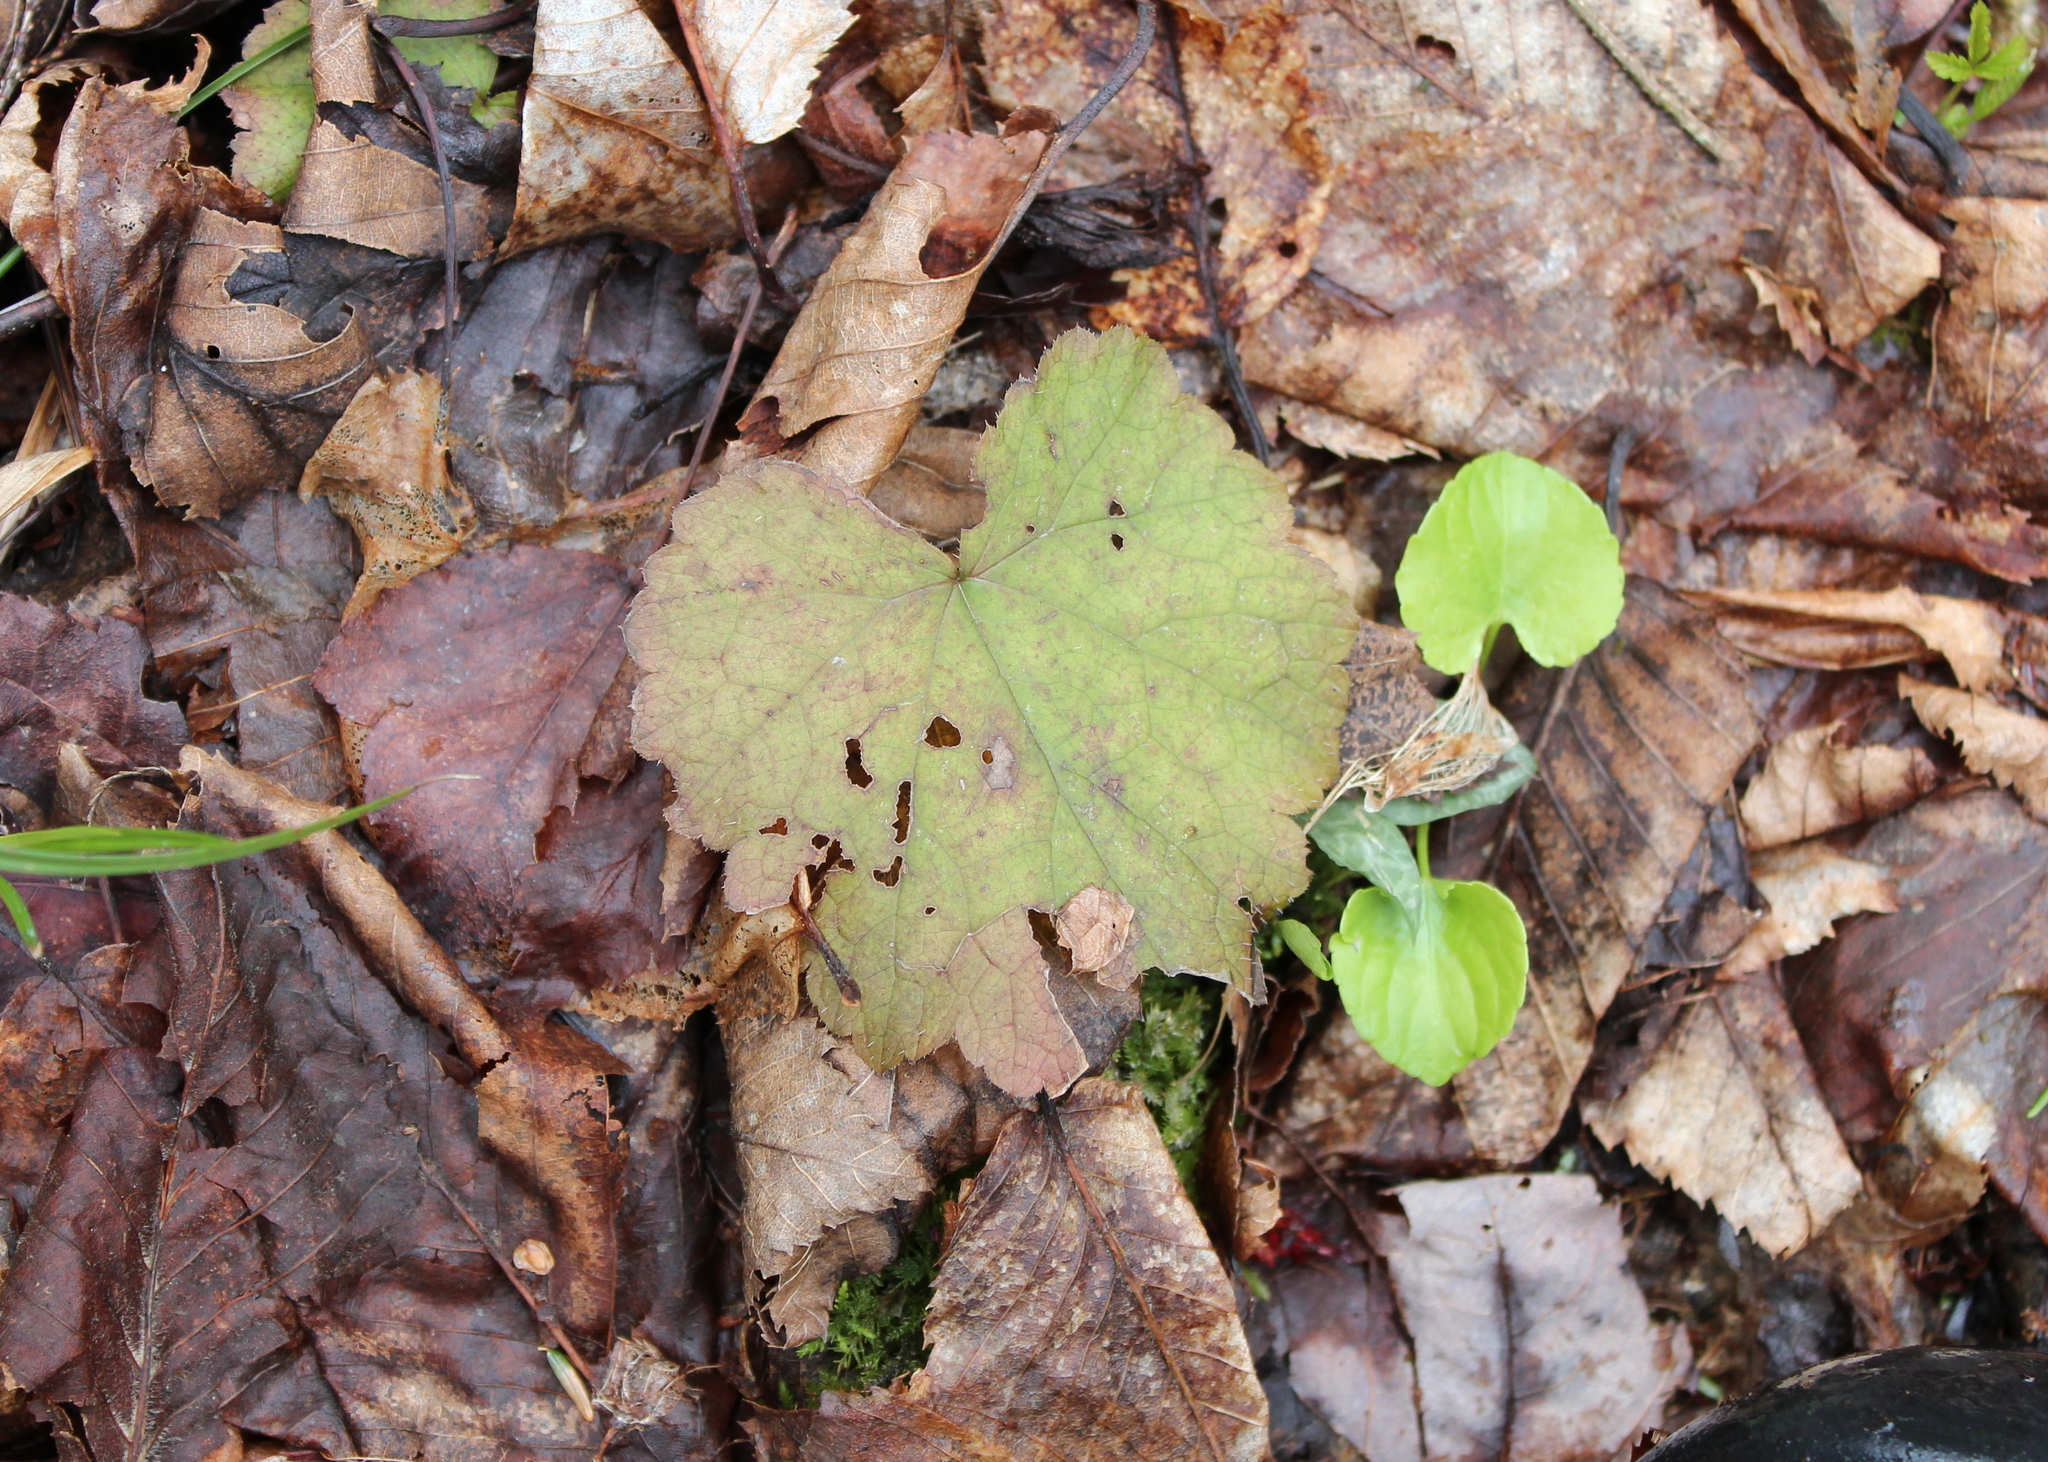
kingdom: Plantae
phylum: Tracheophyta
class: Magnoliopsida
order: Saxifragales
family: Saxifragaceae
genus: Tiarella
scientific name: Tiarella stolonifera
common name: Stoloniferous foamflower
